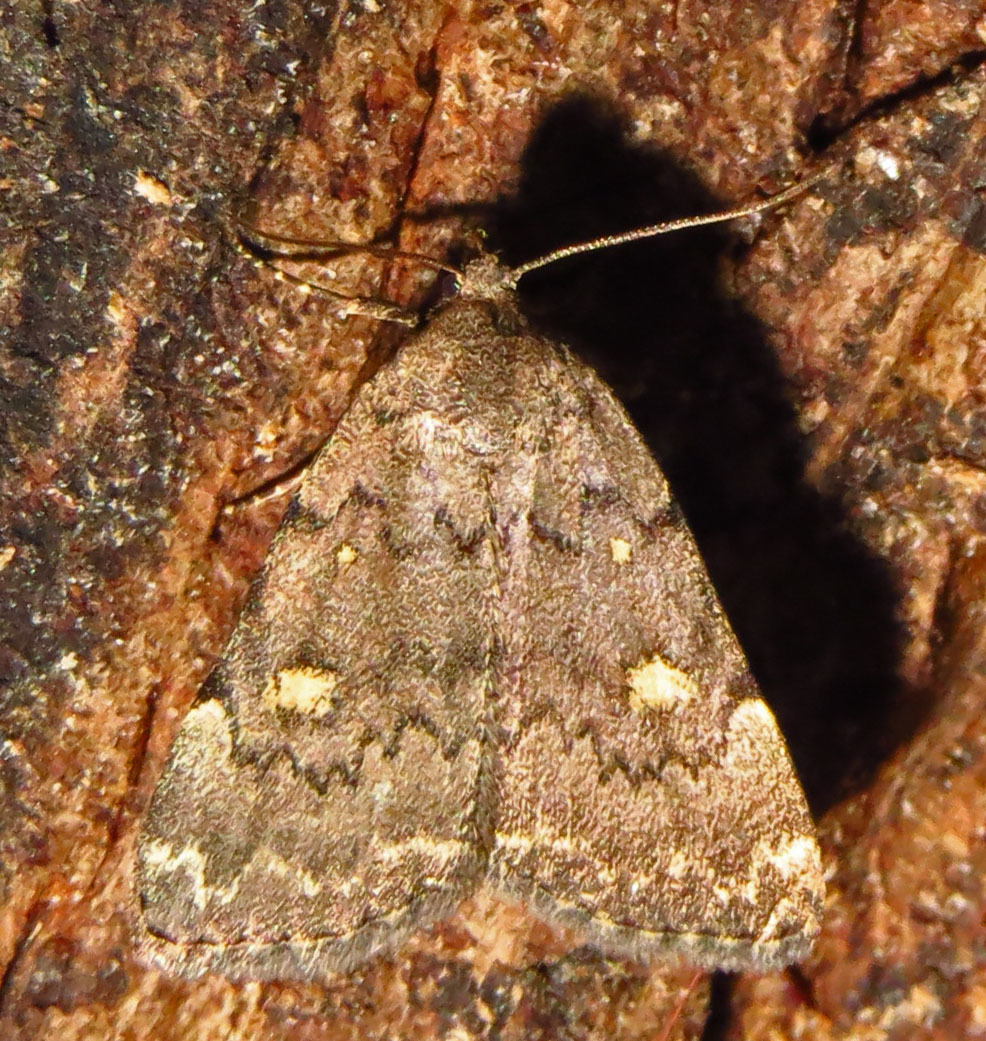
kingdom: Animalia
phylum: Arthropoda
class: Insecta
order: Lepidoptera
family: Erebidae
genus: Idia
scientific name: Idia aemula
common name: Common idia moth
